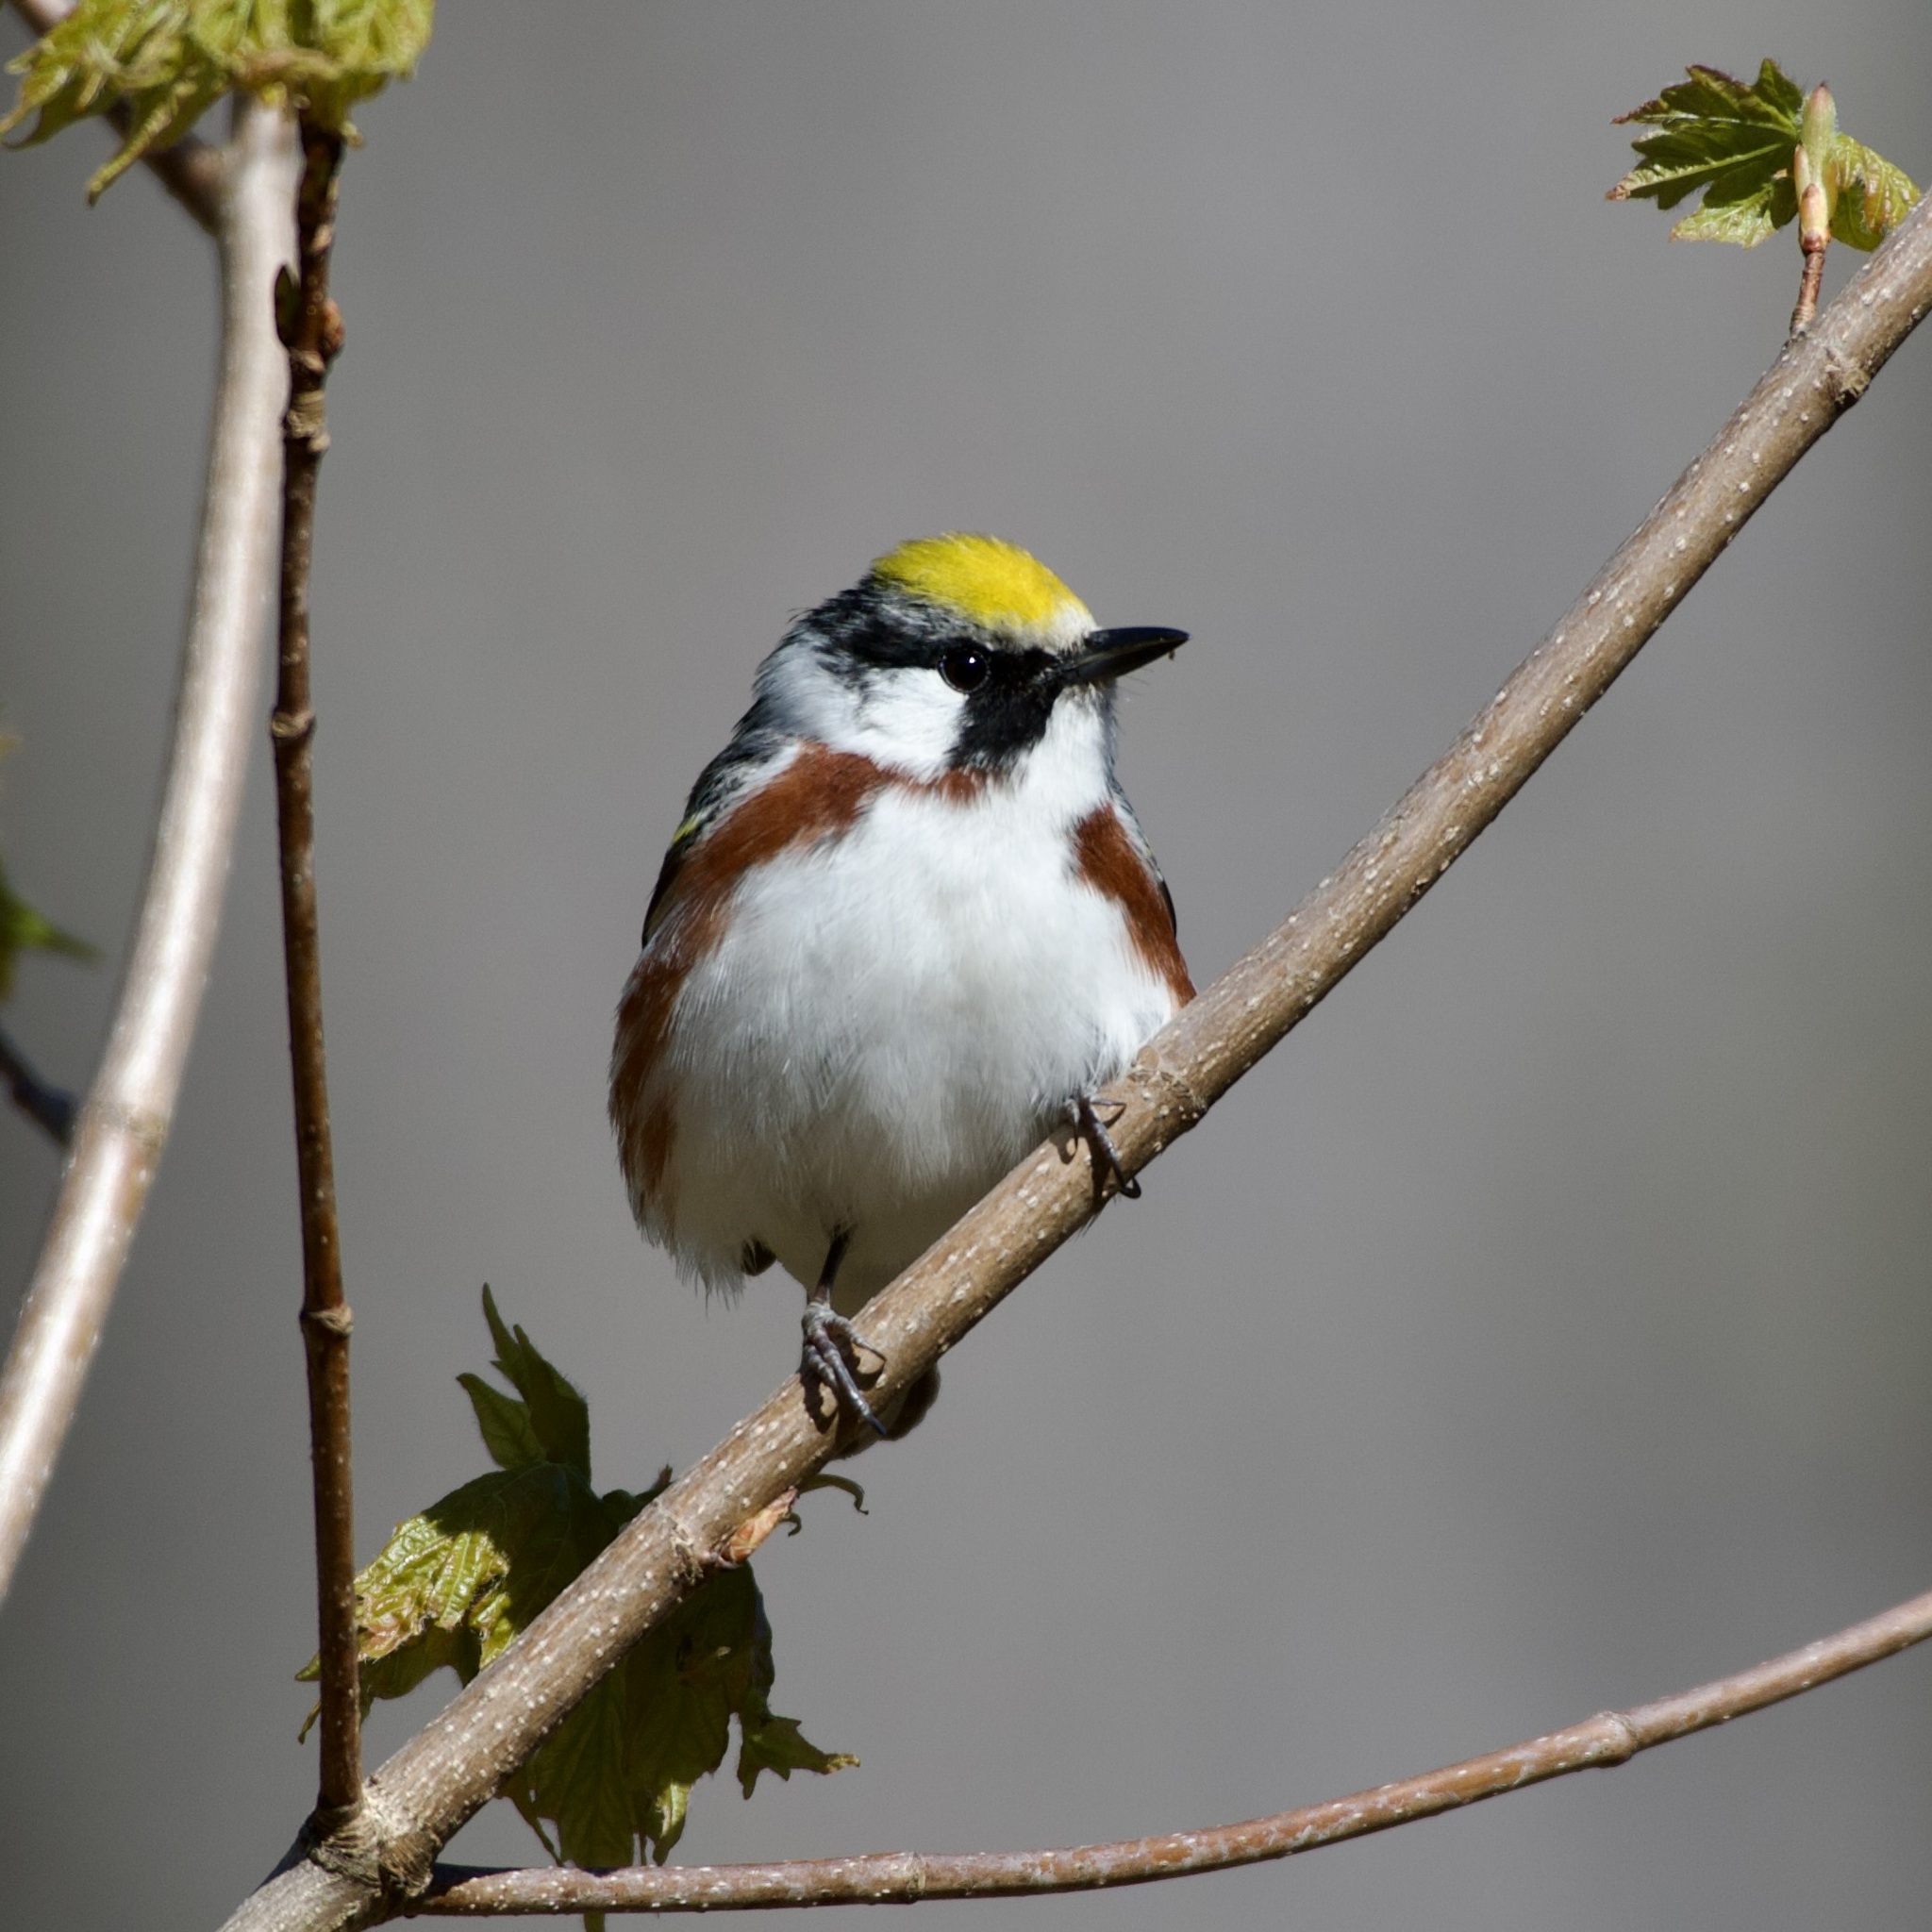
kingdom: Animalia
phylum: Chordata
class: Aves
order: Passeriformes
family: Parulidae
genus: Setophaga
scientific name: Setophaga pensylvanica
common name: Chestnut-sided warbler
